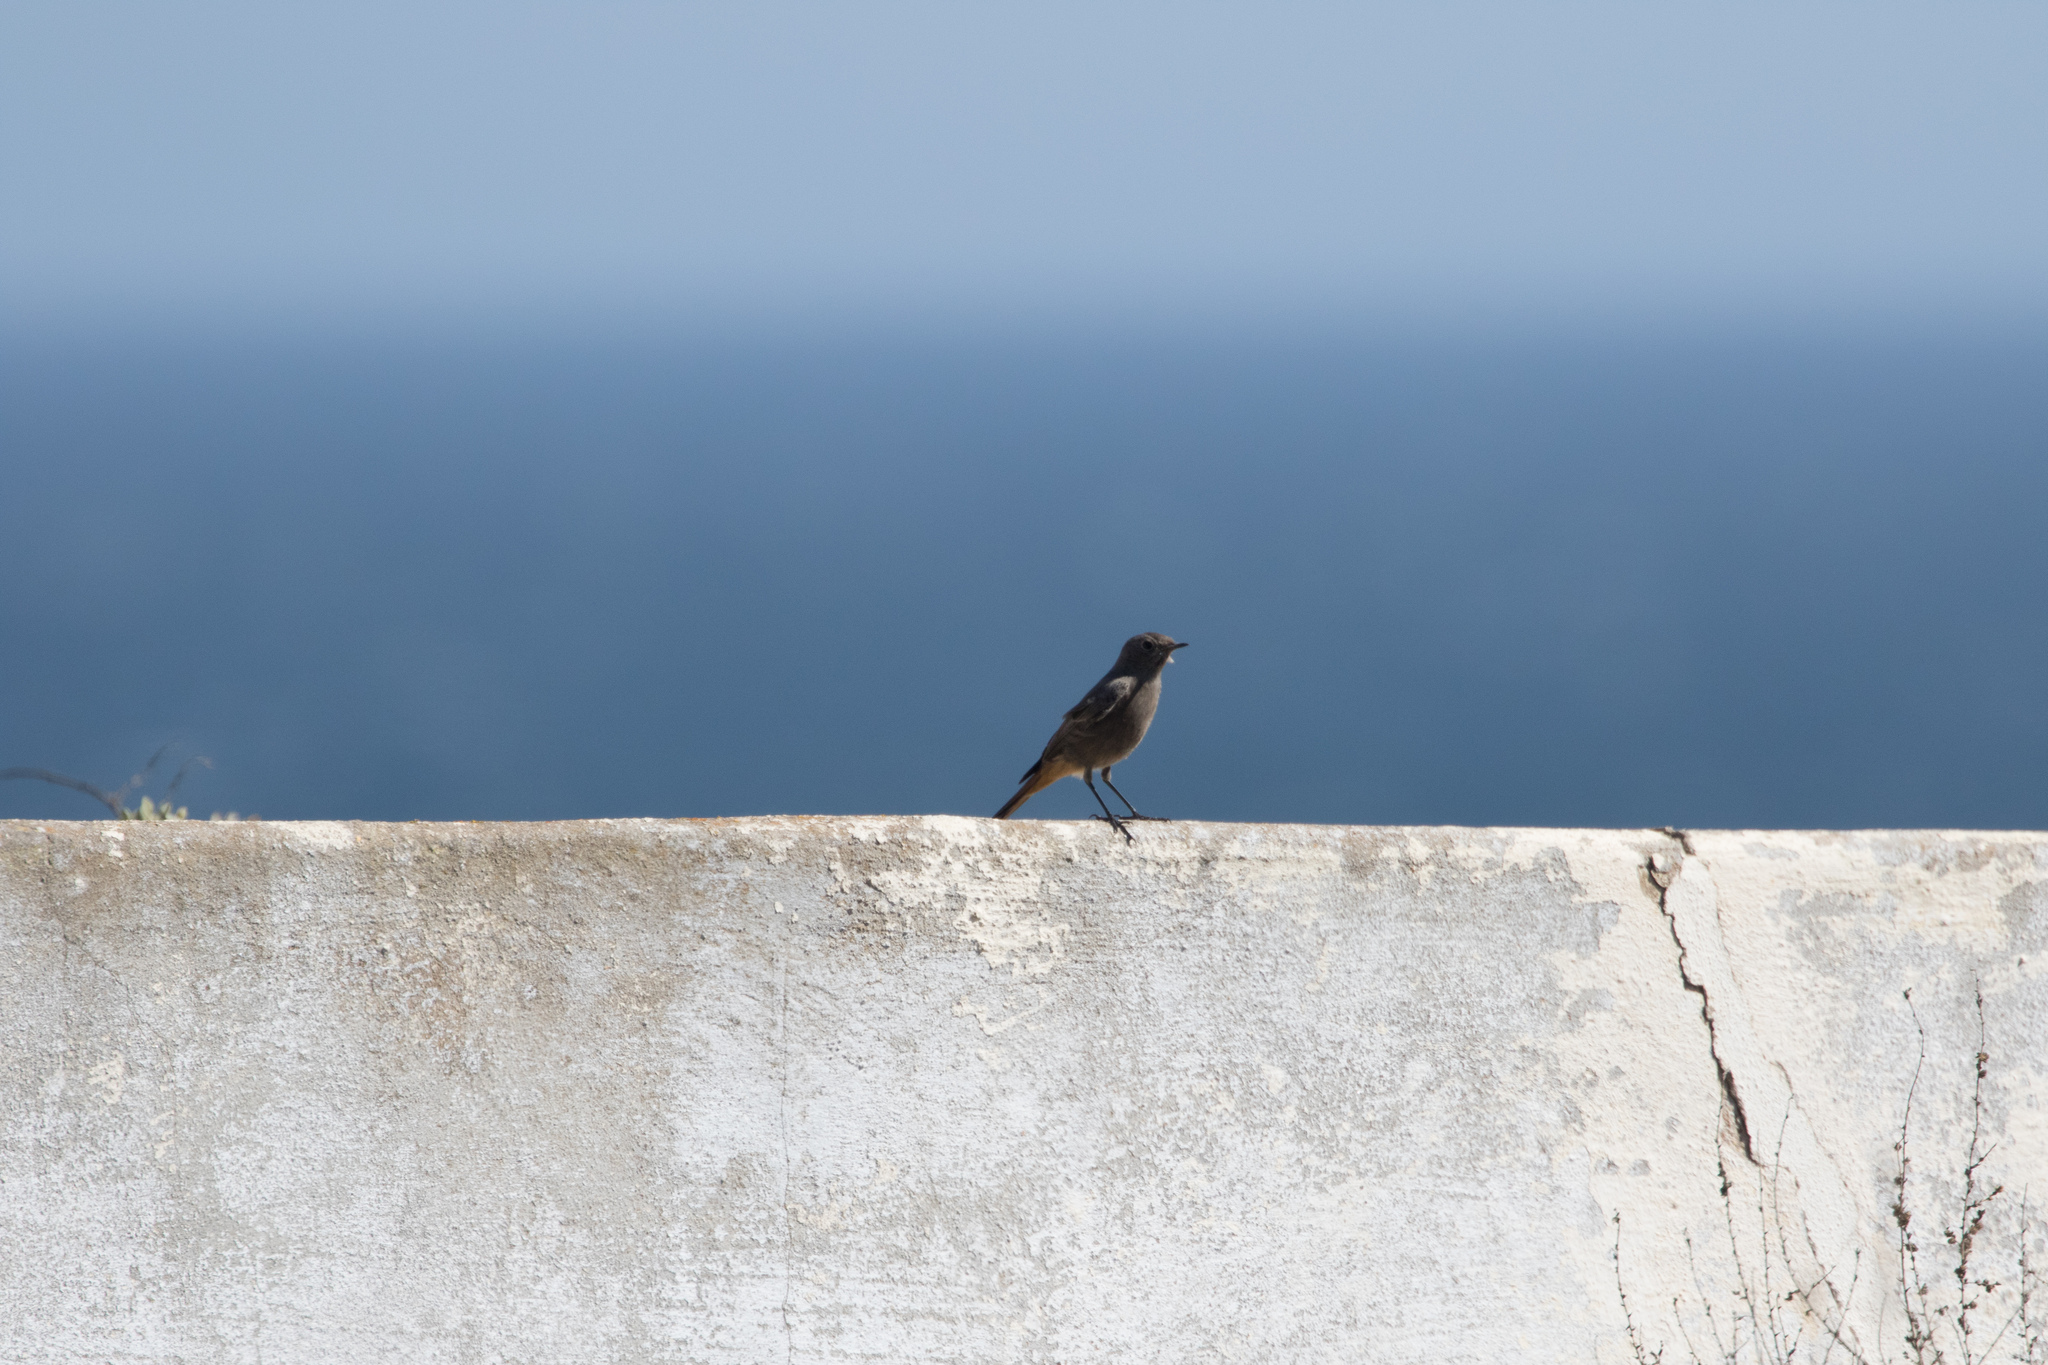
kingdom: Animalia
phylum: Chordata
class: Aves
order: Passeriformes
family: Muscicapidae
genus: Phoenicurus
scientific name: Phoenicurus ochruros
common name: Black redstart
